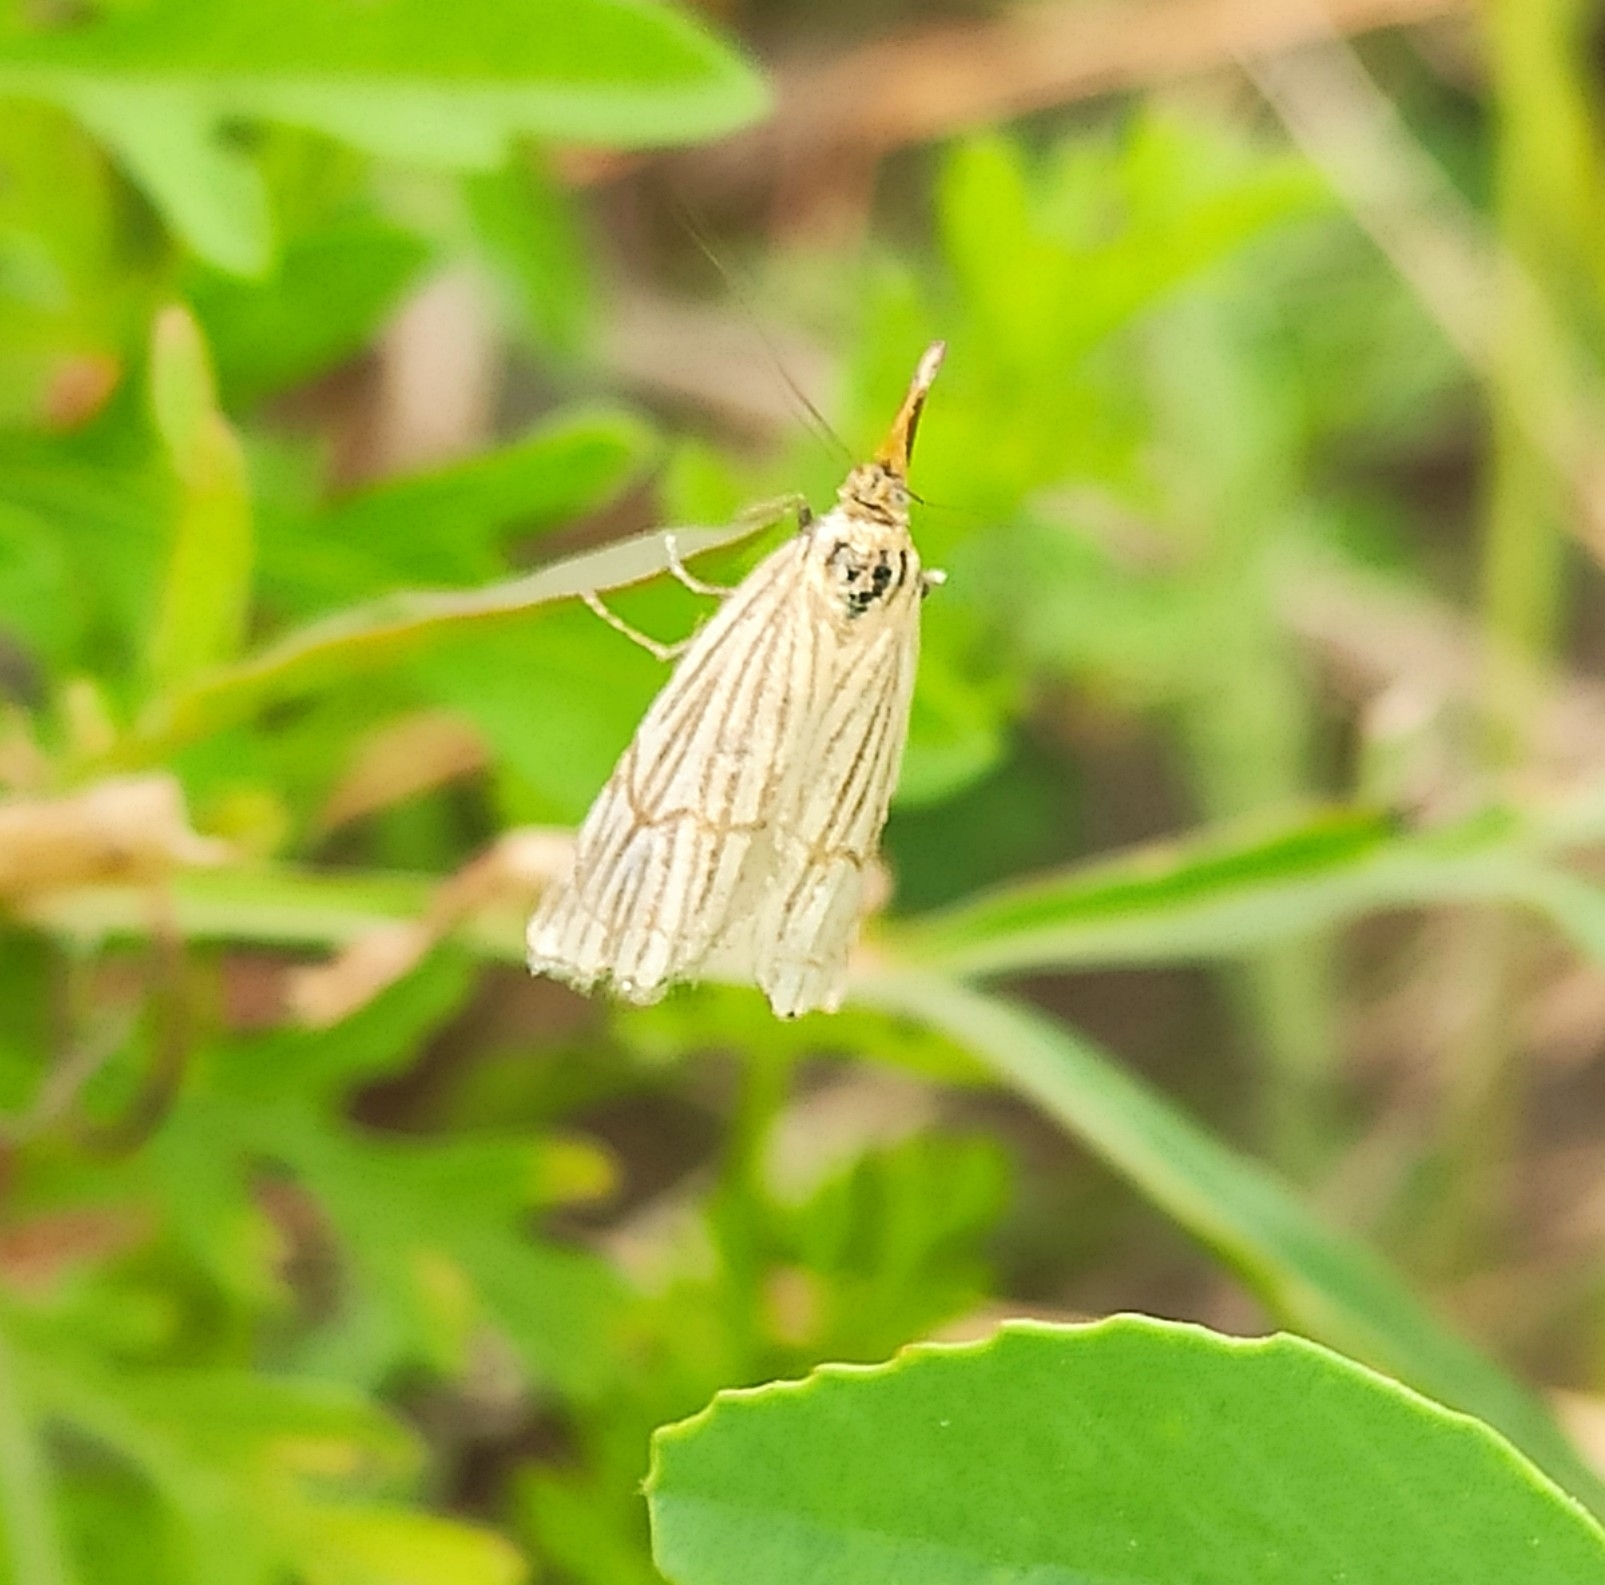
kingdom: Animalia
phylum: Arthropoda
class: Insecta
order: Lepidoptera
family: Crambidae
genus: Chrysocrambus
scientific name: Chrysocrambus linetella
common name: Orange-bar grass-veneer
